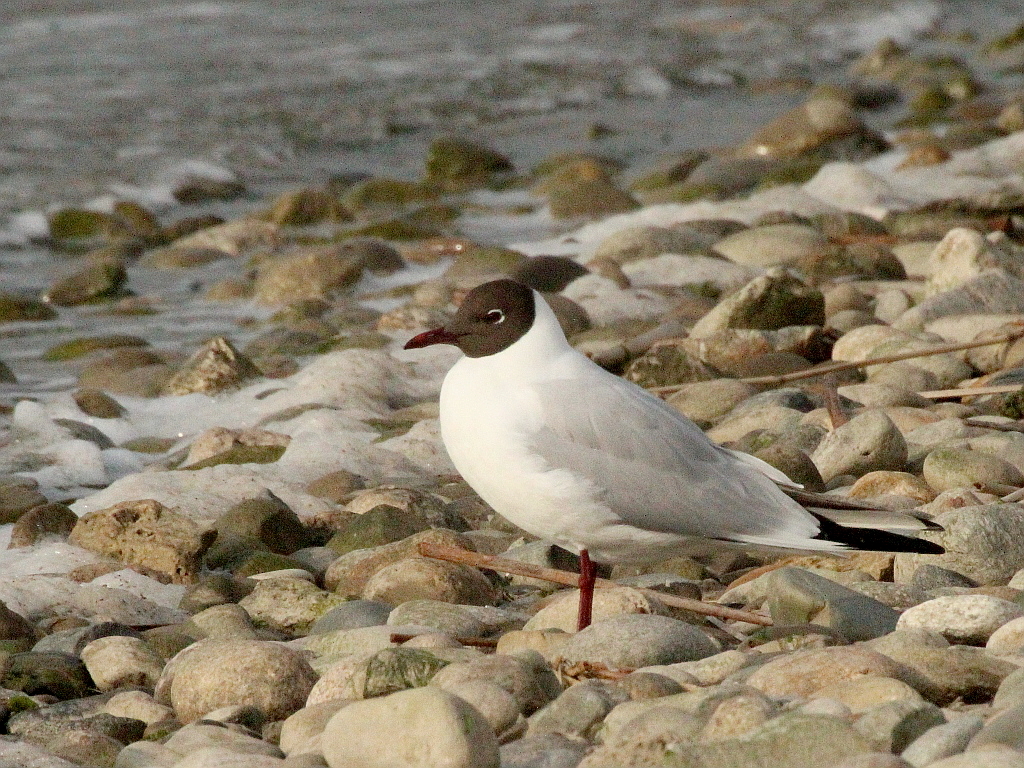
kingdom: Animalia
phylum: Chordata
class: Aves
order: Charadriiformes
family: Laridae
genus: Chroicocephalus
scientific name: Chroicocephalus ridibundus
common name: Black-headed gull
